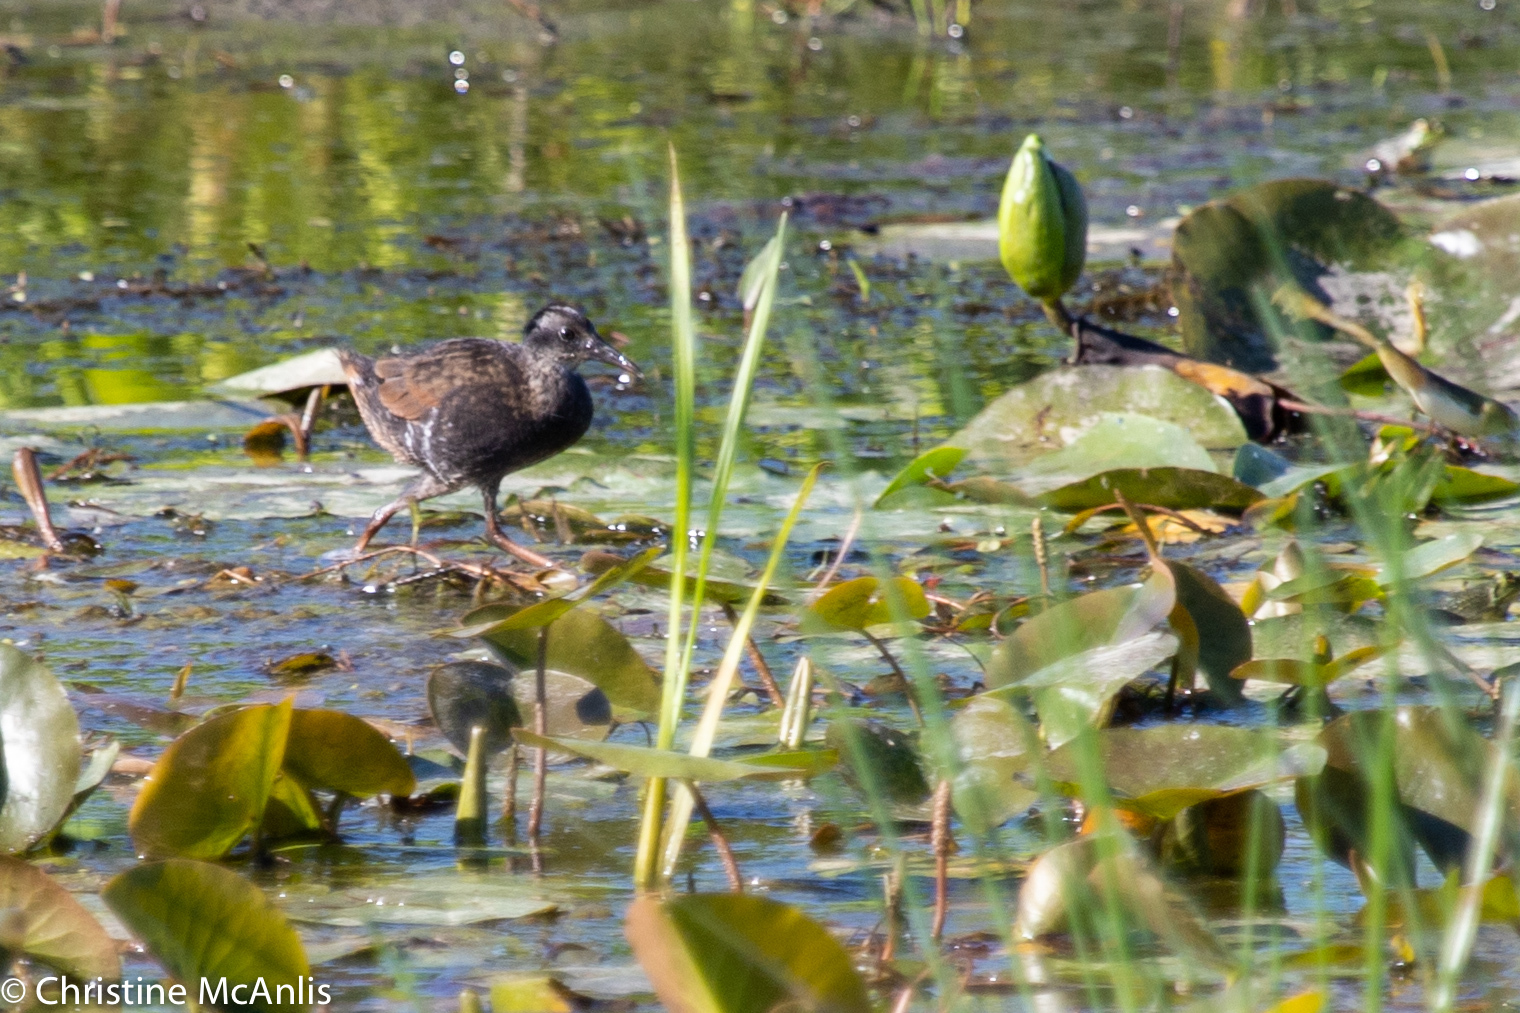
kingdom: Animalia
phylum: Chordata
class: Aves
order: Gruiformes
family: Rallidae
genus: Rallus
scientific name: Rallus limicola
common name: Virginia rail
